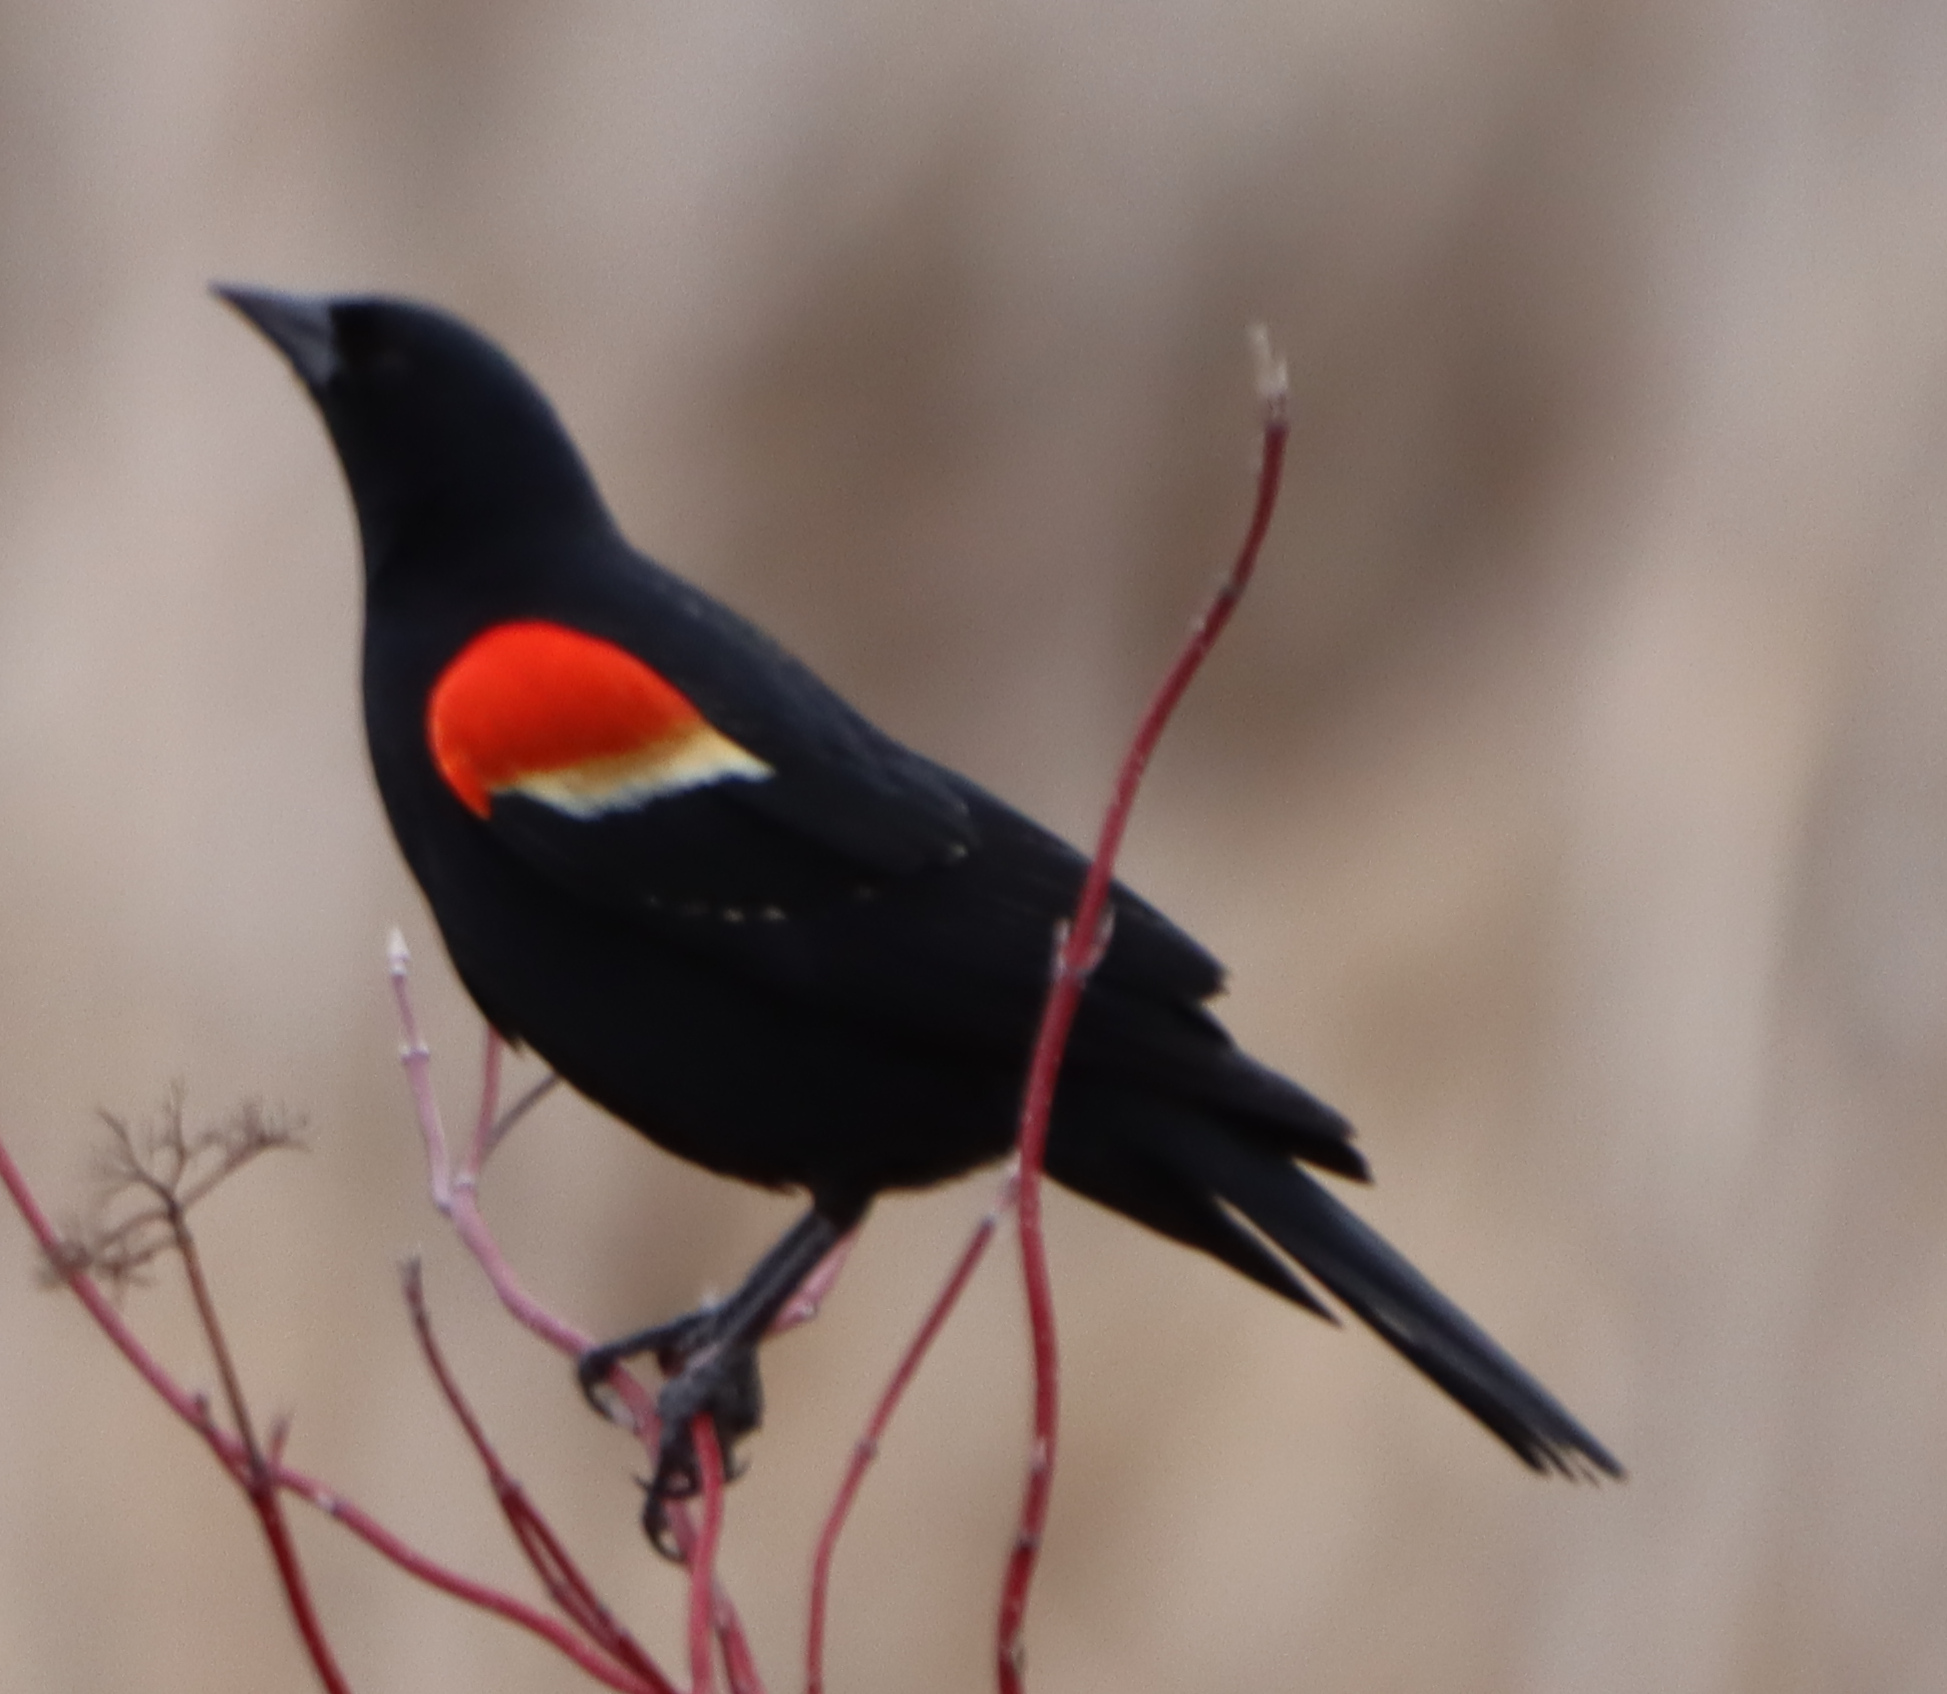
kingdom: Animalia
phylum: Chordata
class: Aves
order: Passeriformes
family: Icteridae
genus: Agelaius
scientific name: Agelaius phoeniceus
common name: Red-winged blackbird
